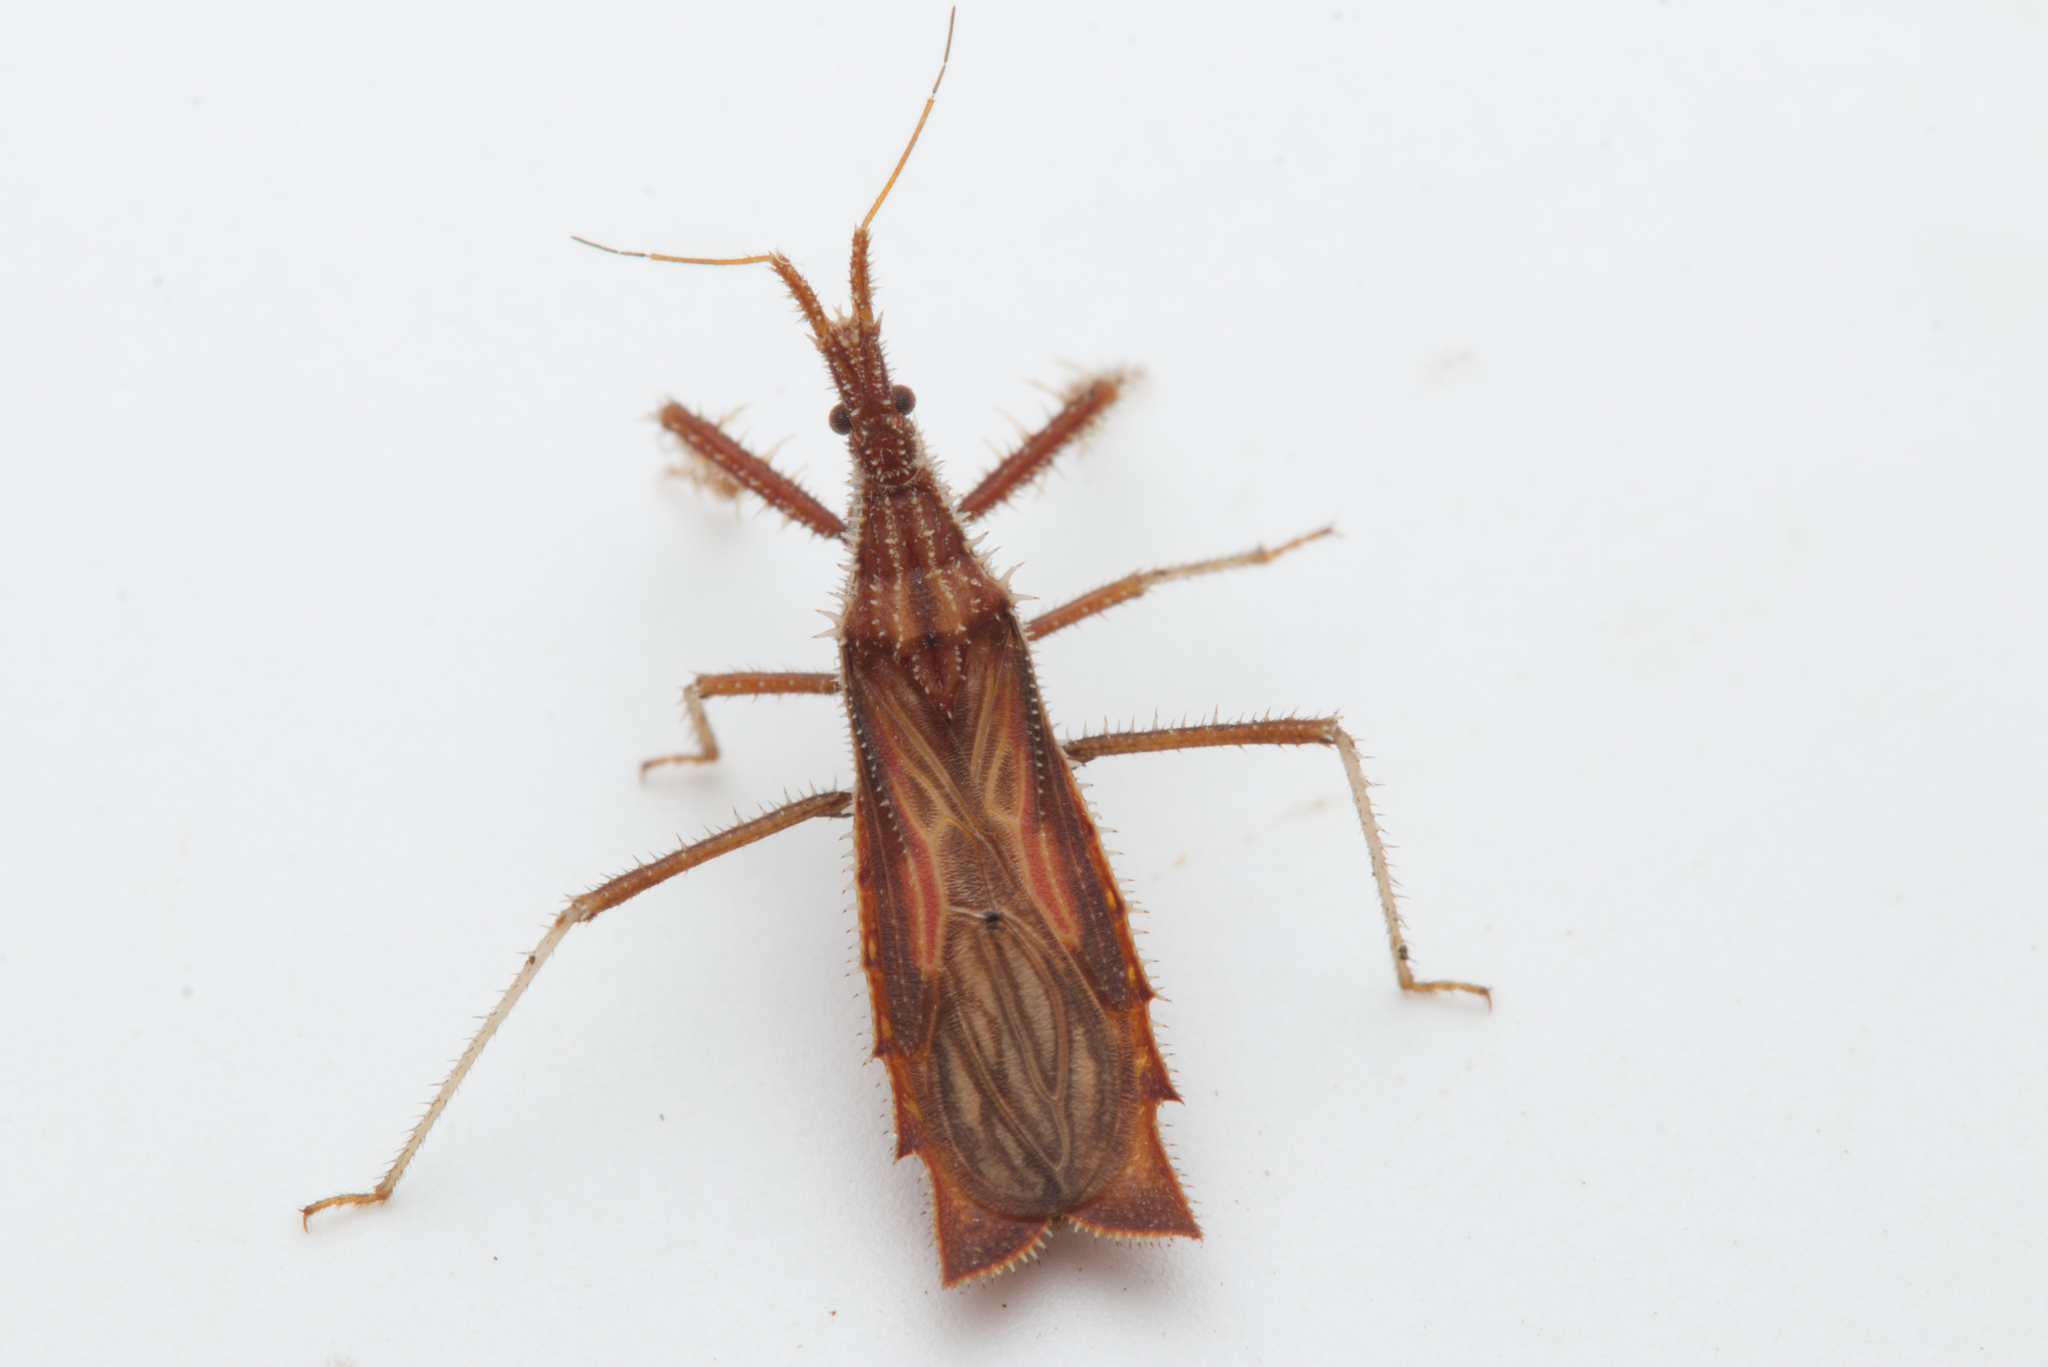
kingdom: Animalia
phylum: Arthropoda
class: Insecta
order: Hemiptera
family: Reduviidae
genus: Polycentrocoris
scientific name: Polycentrocoris turneri
